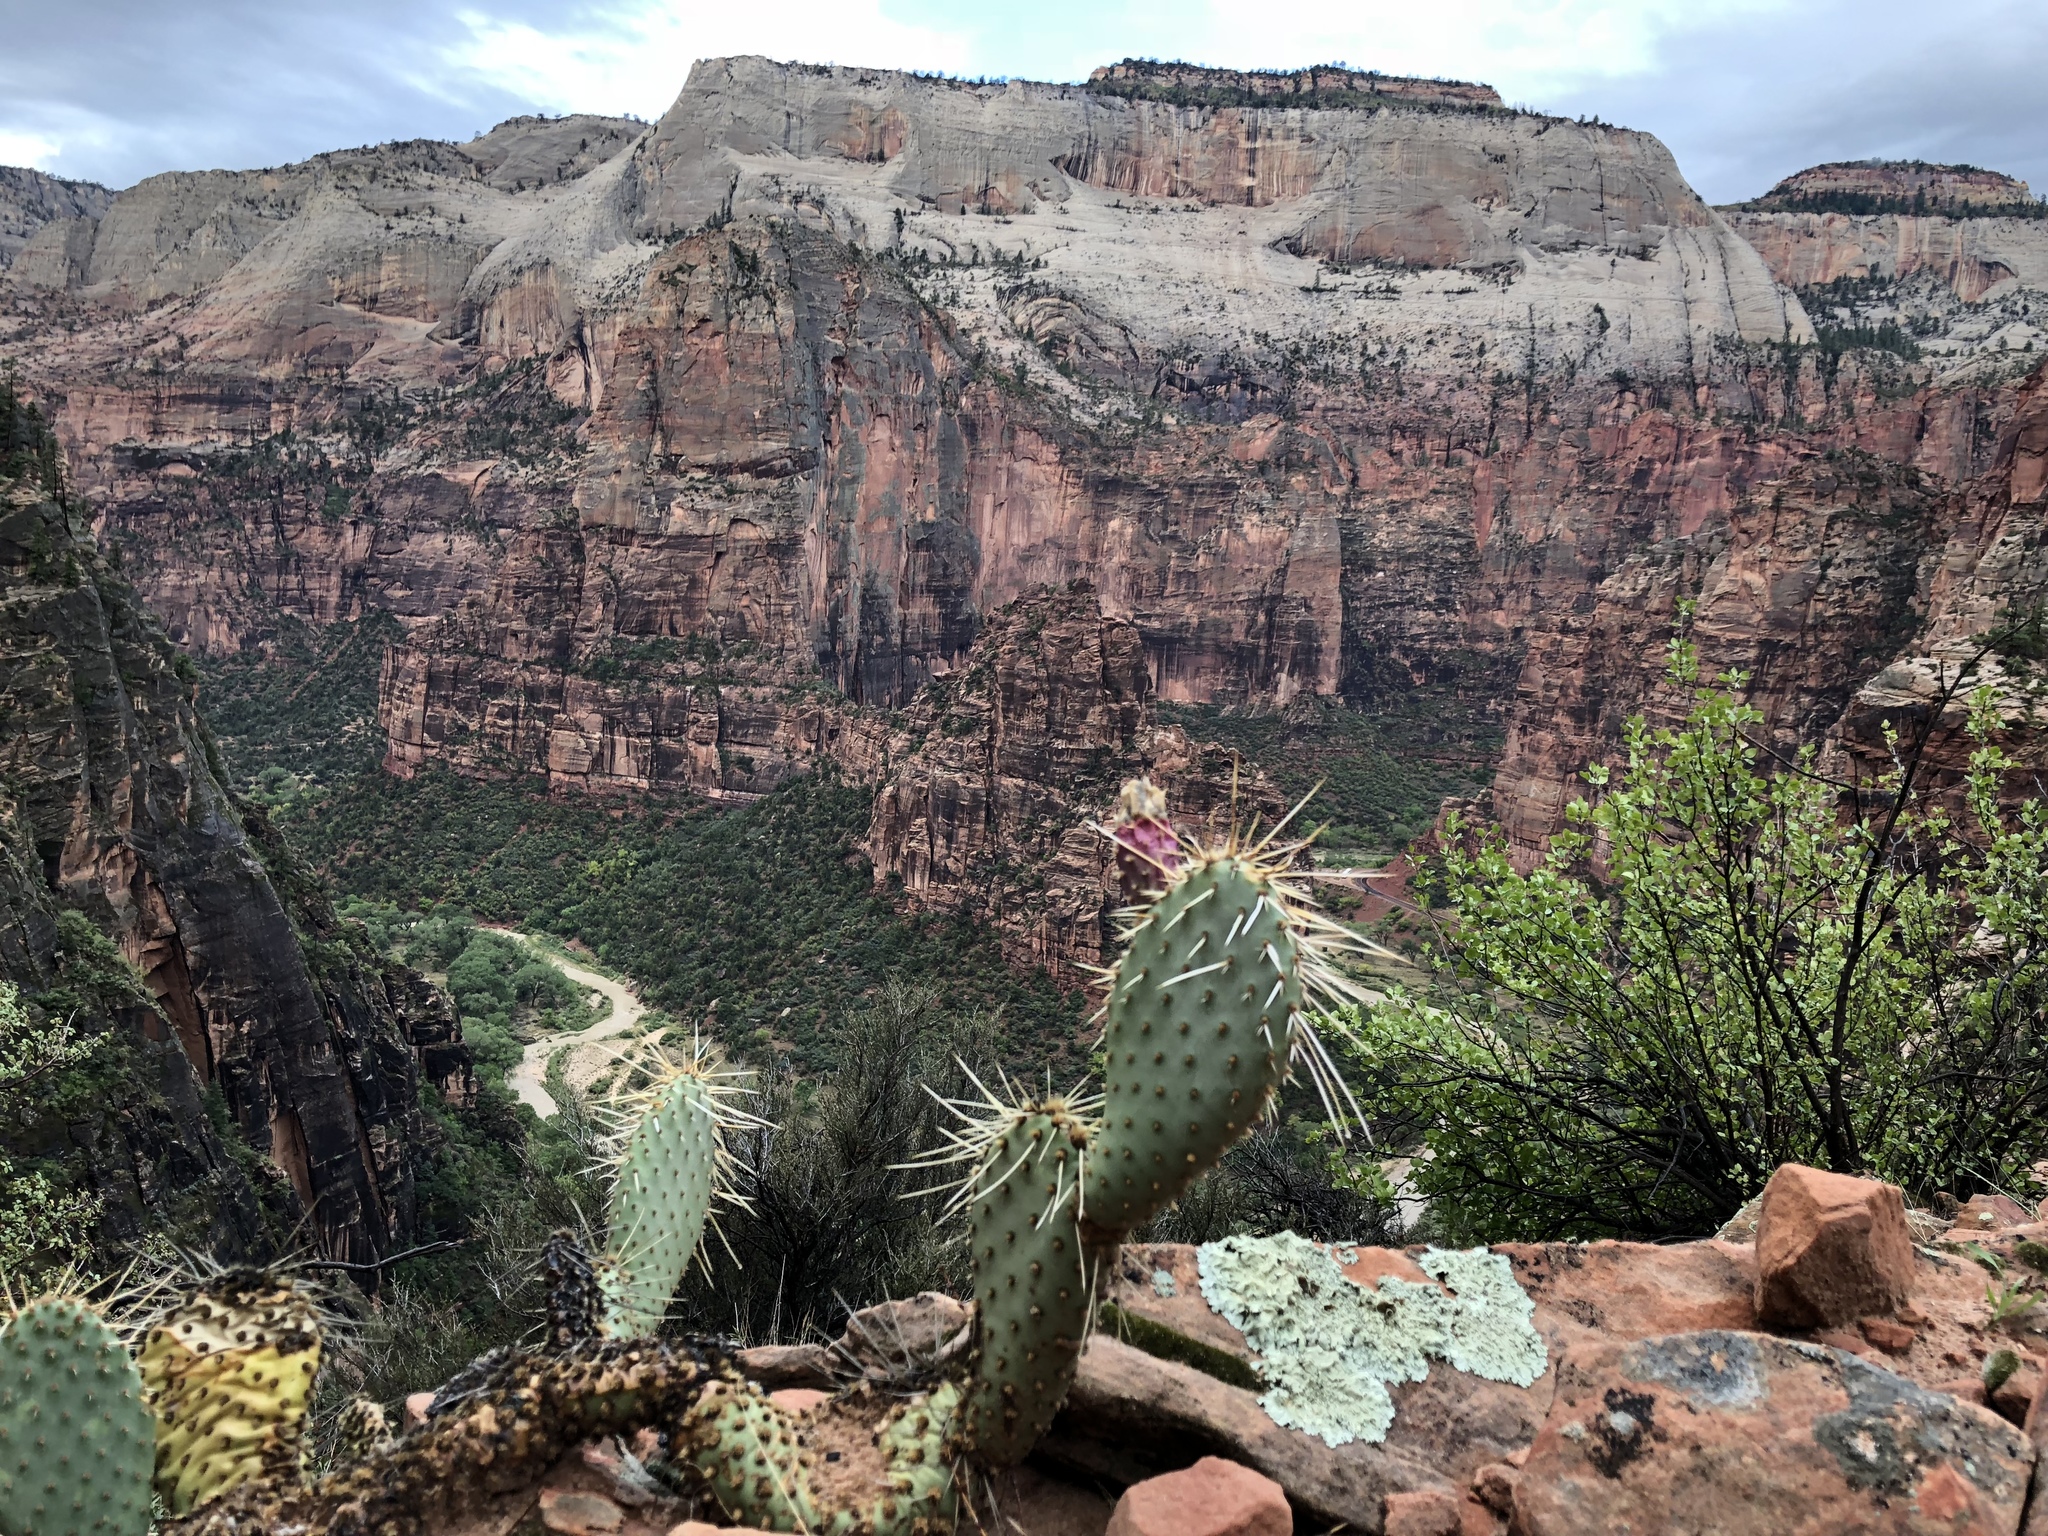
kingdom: Plantae
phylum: Tracheophyta
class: Magnoliopsida
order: Caryophyllales
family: Cactaceae
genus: Opuntia
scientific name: Opuntia engelmannii
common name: Cactus-apple
